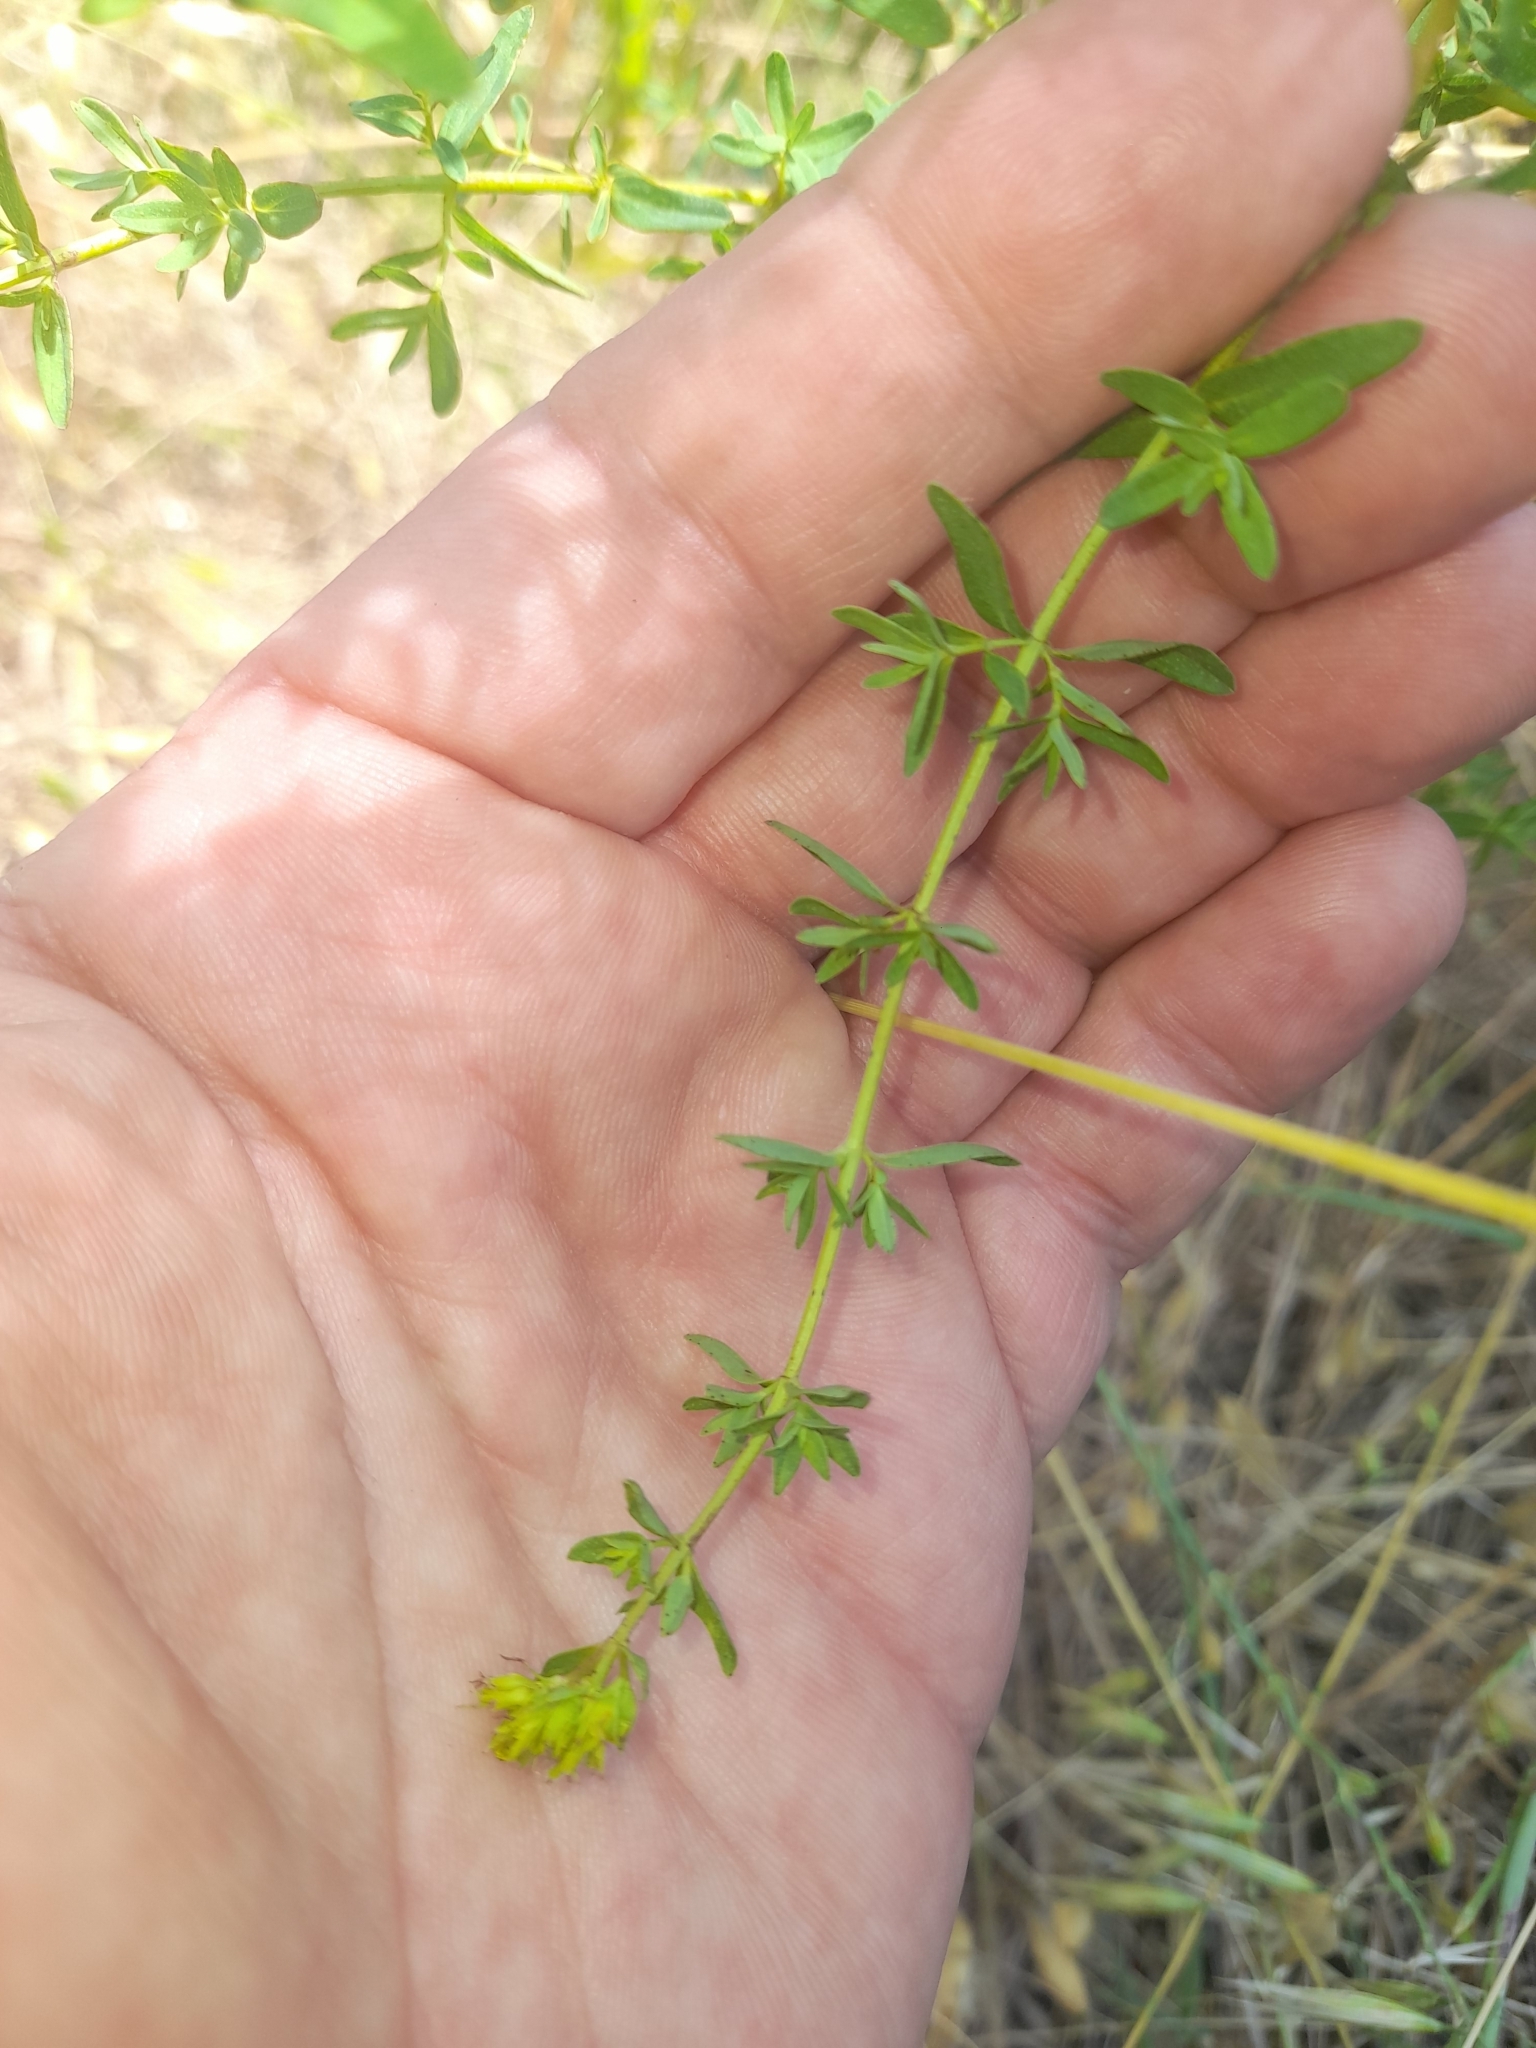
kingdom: Plantae
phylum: Tracheophyta
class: Magnoliopsida
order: Malpighiales
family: Hypericaceae
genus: Hypericum
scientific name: Hypericum perforatum
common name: Common st. johnswort
